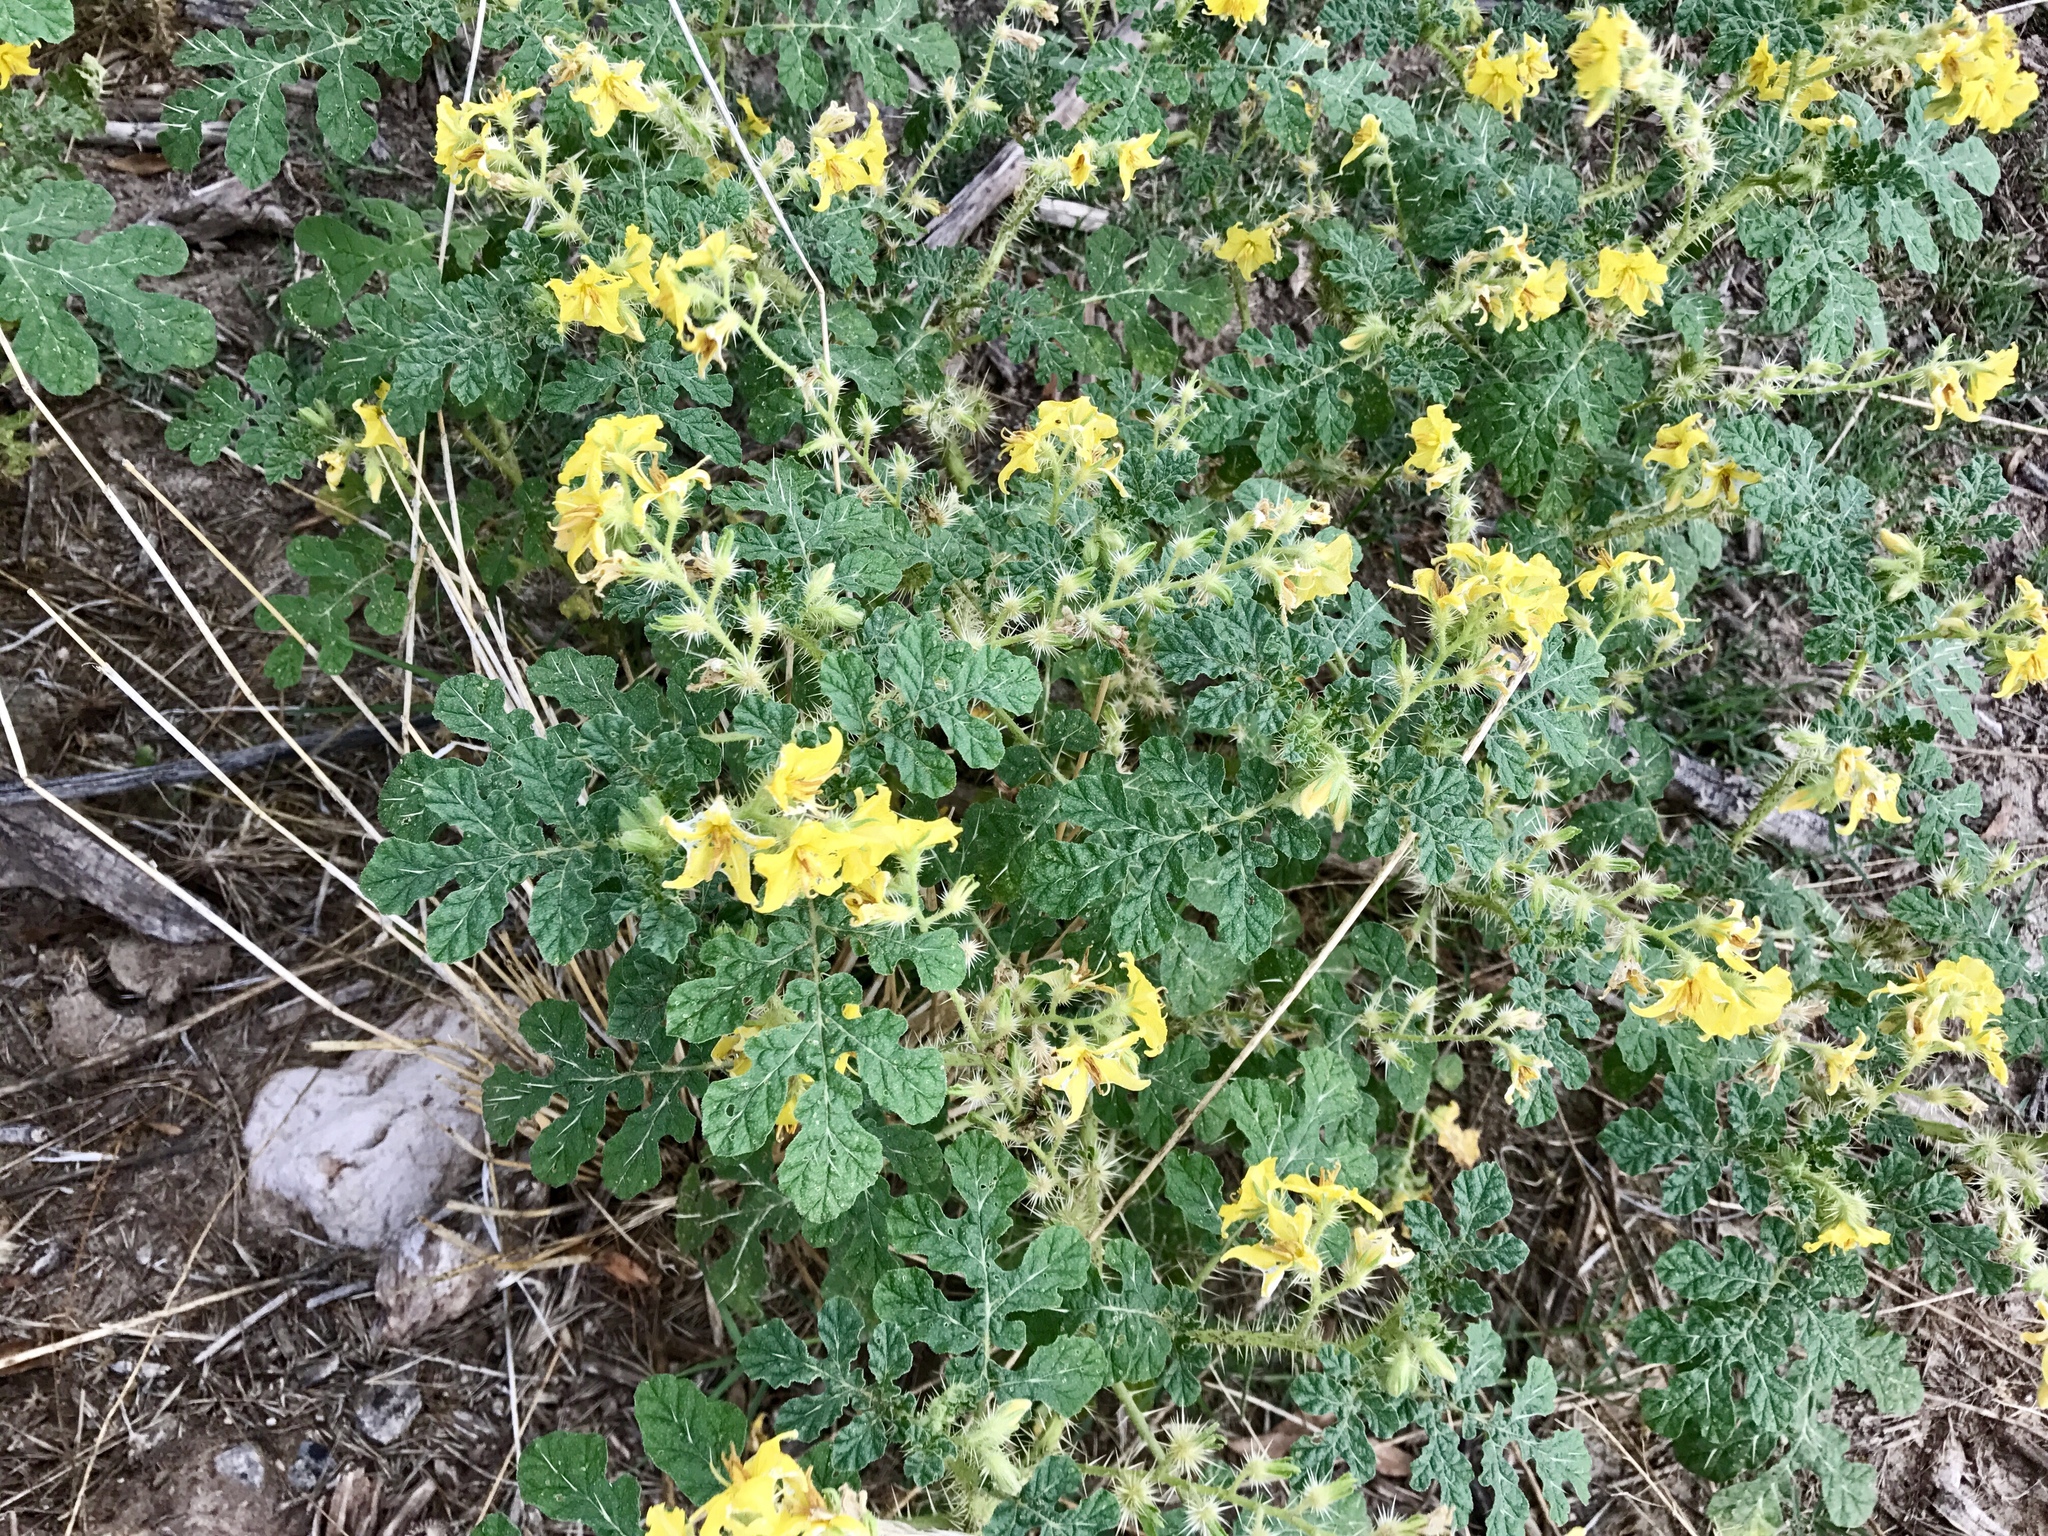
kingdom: Plantae
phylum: Tracheophyta
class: Magnoliopsida
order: Solanales
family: Solanaceae
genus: Solanum
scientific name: Solanum angustifolium
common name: Buffalobur nightshade
